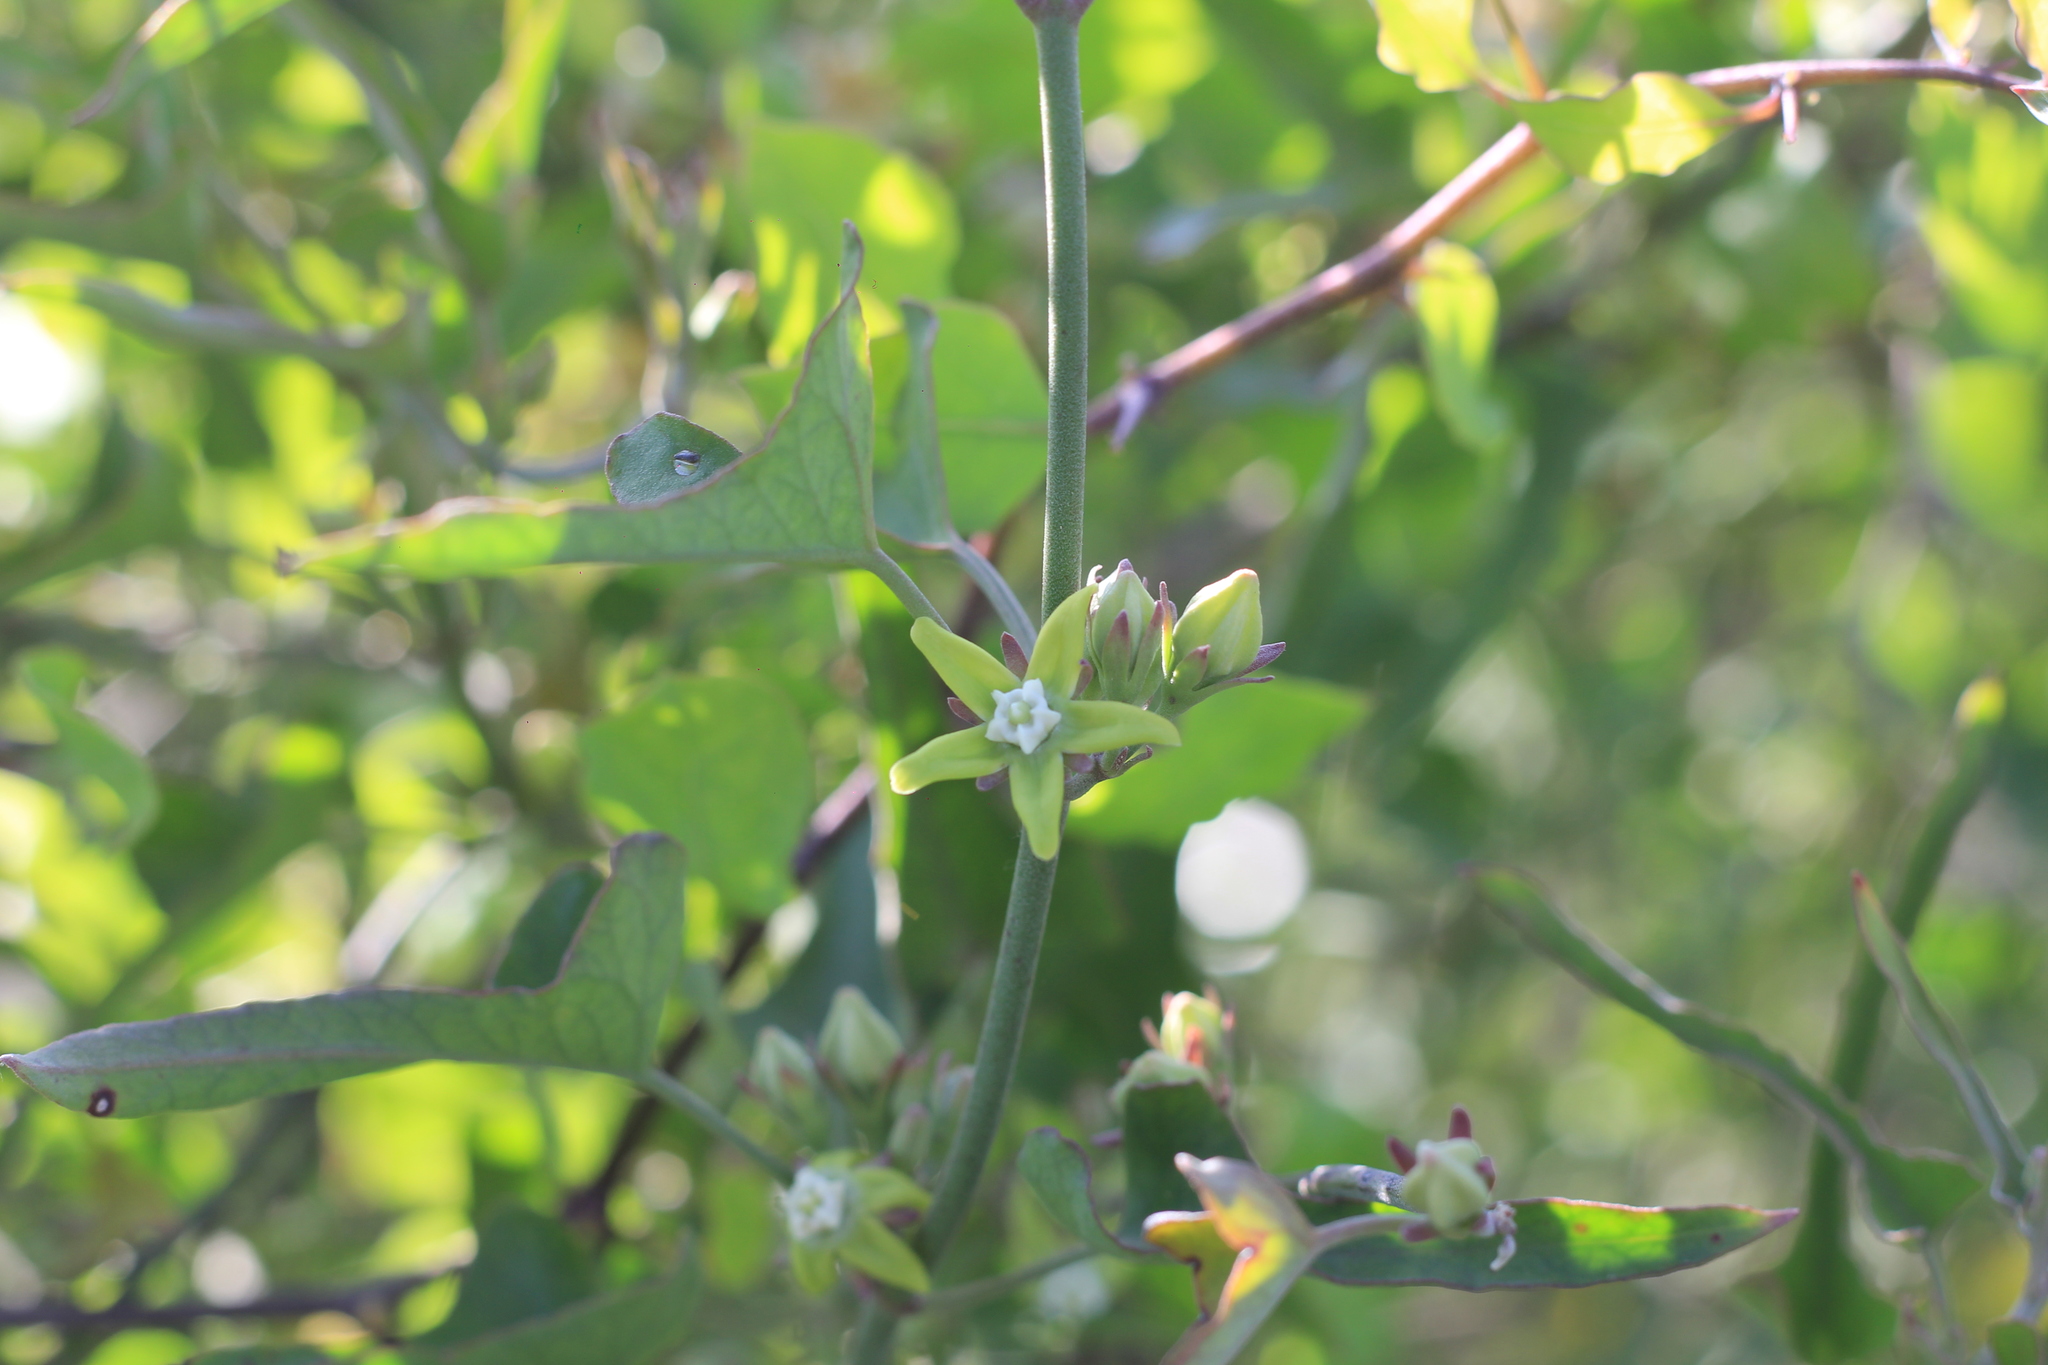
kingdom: Plantae
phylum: Tracheophyta
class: Magnoliopsida
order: Gentianales
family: Apocynaceae
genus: Araujia
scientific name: Araujia brachystephana
